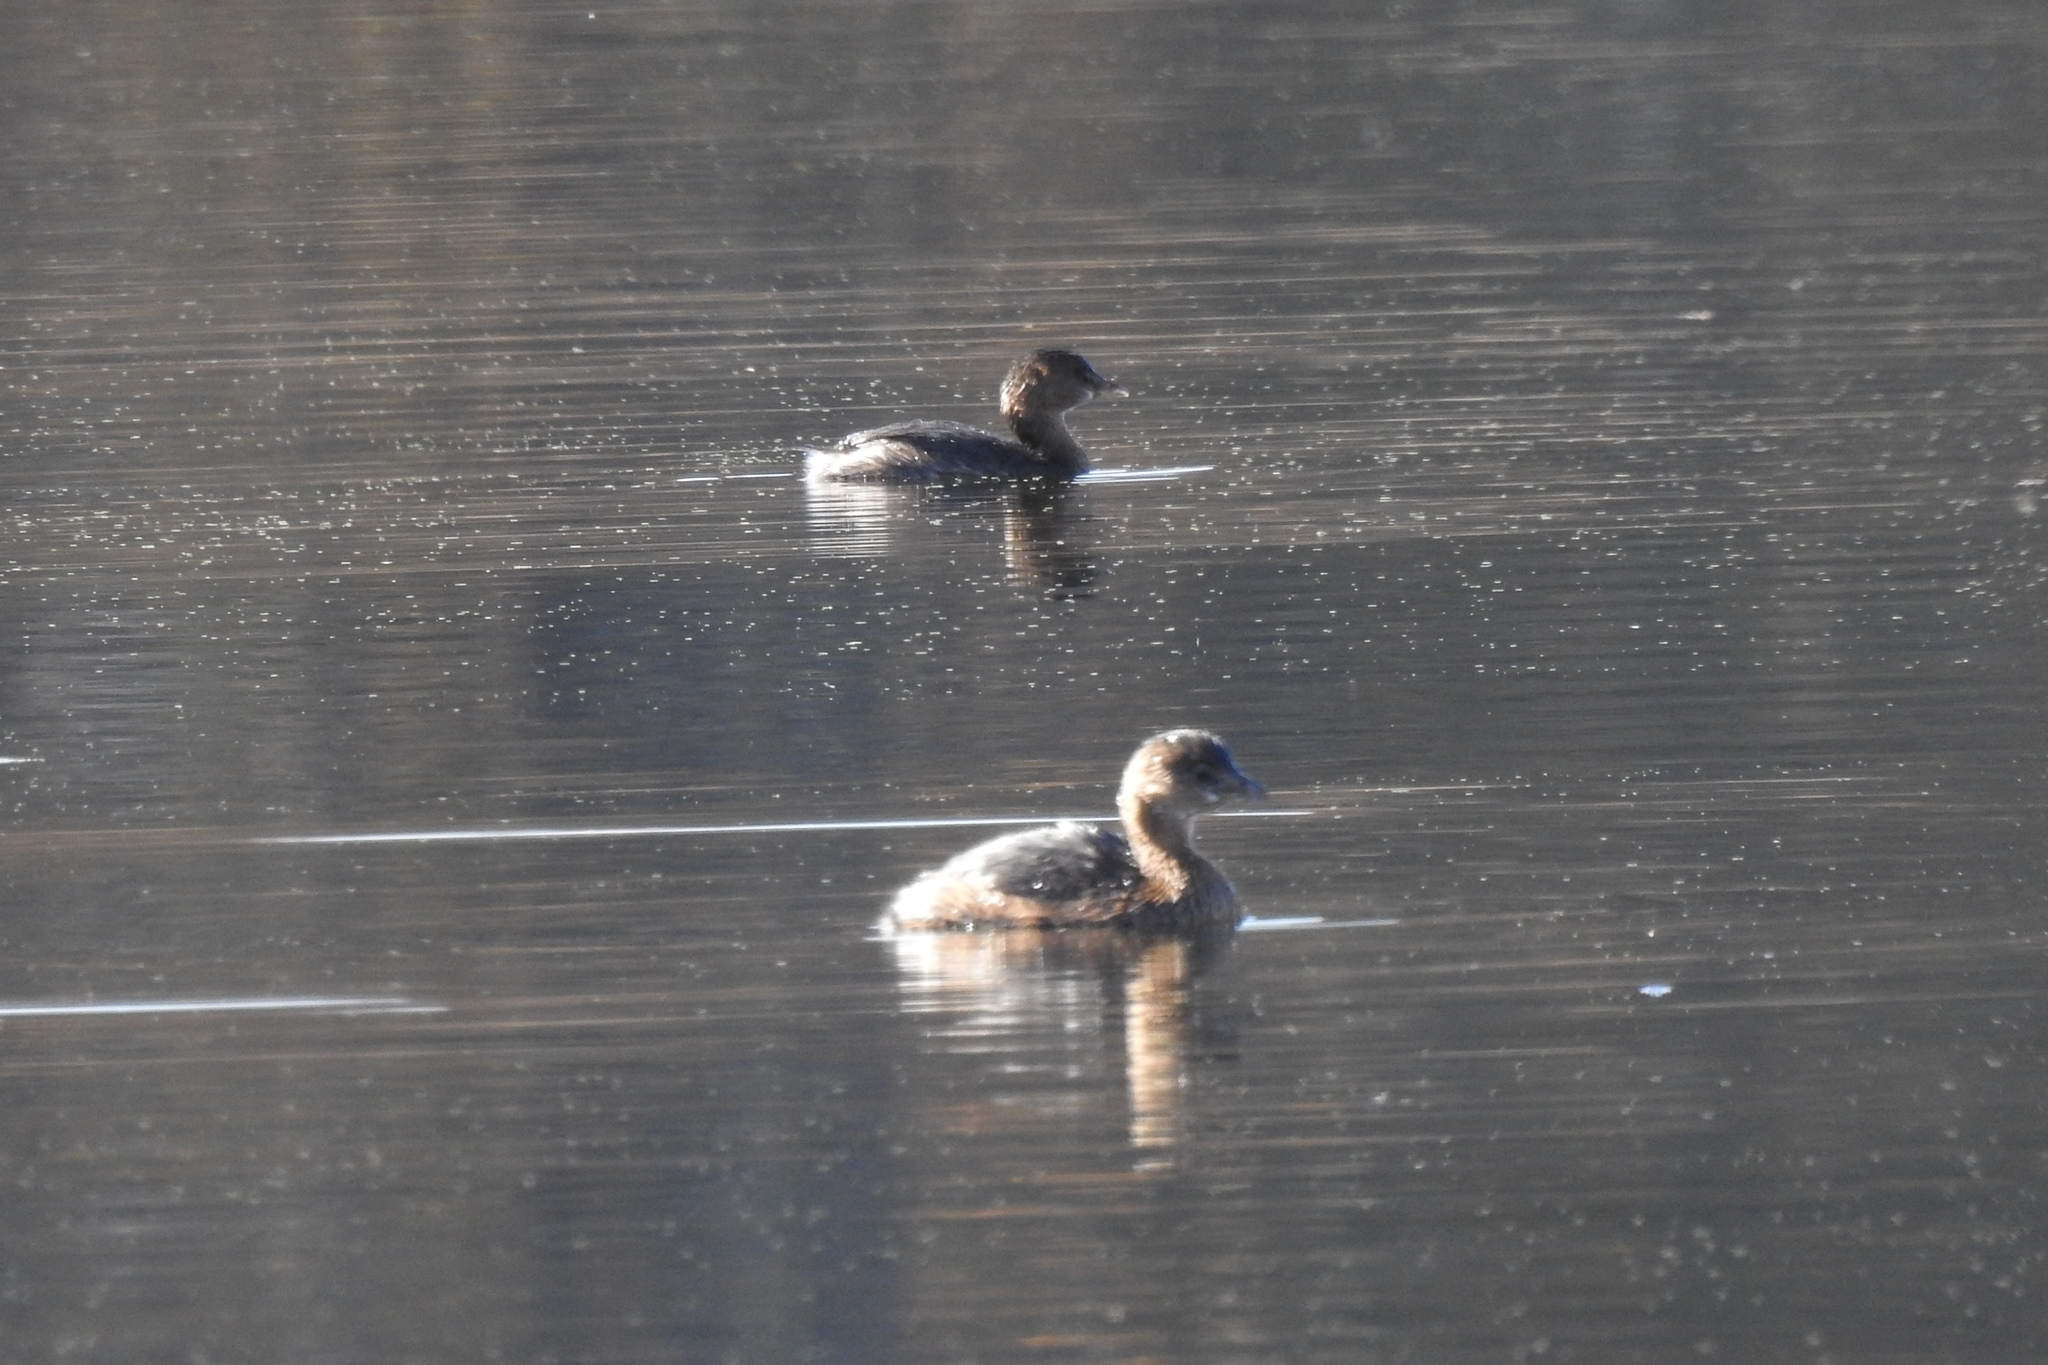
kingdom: Animalia
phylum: Chordata
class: Aves
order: Podicipediformes
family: Podicipedidae
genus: Podilymbus
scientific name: Podilymbus podiceps
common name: Pied-billed grebe
